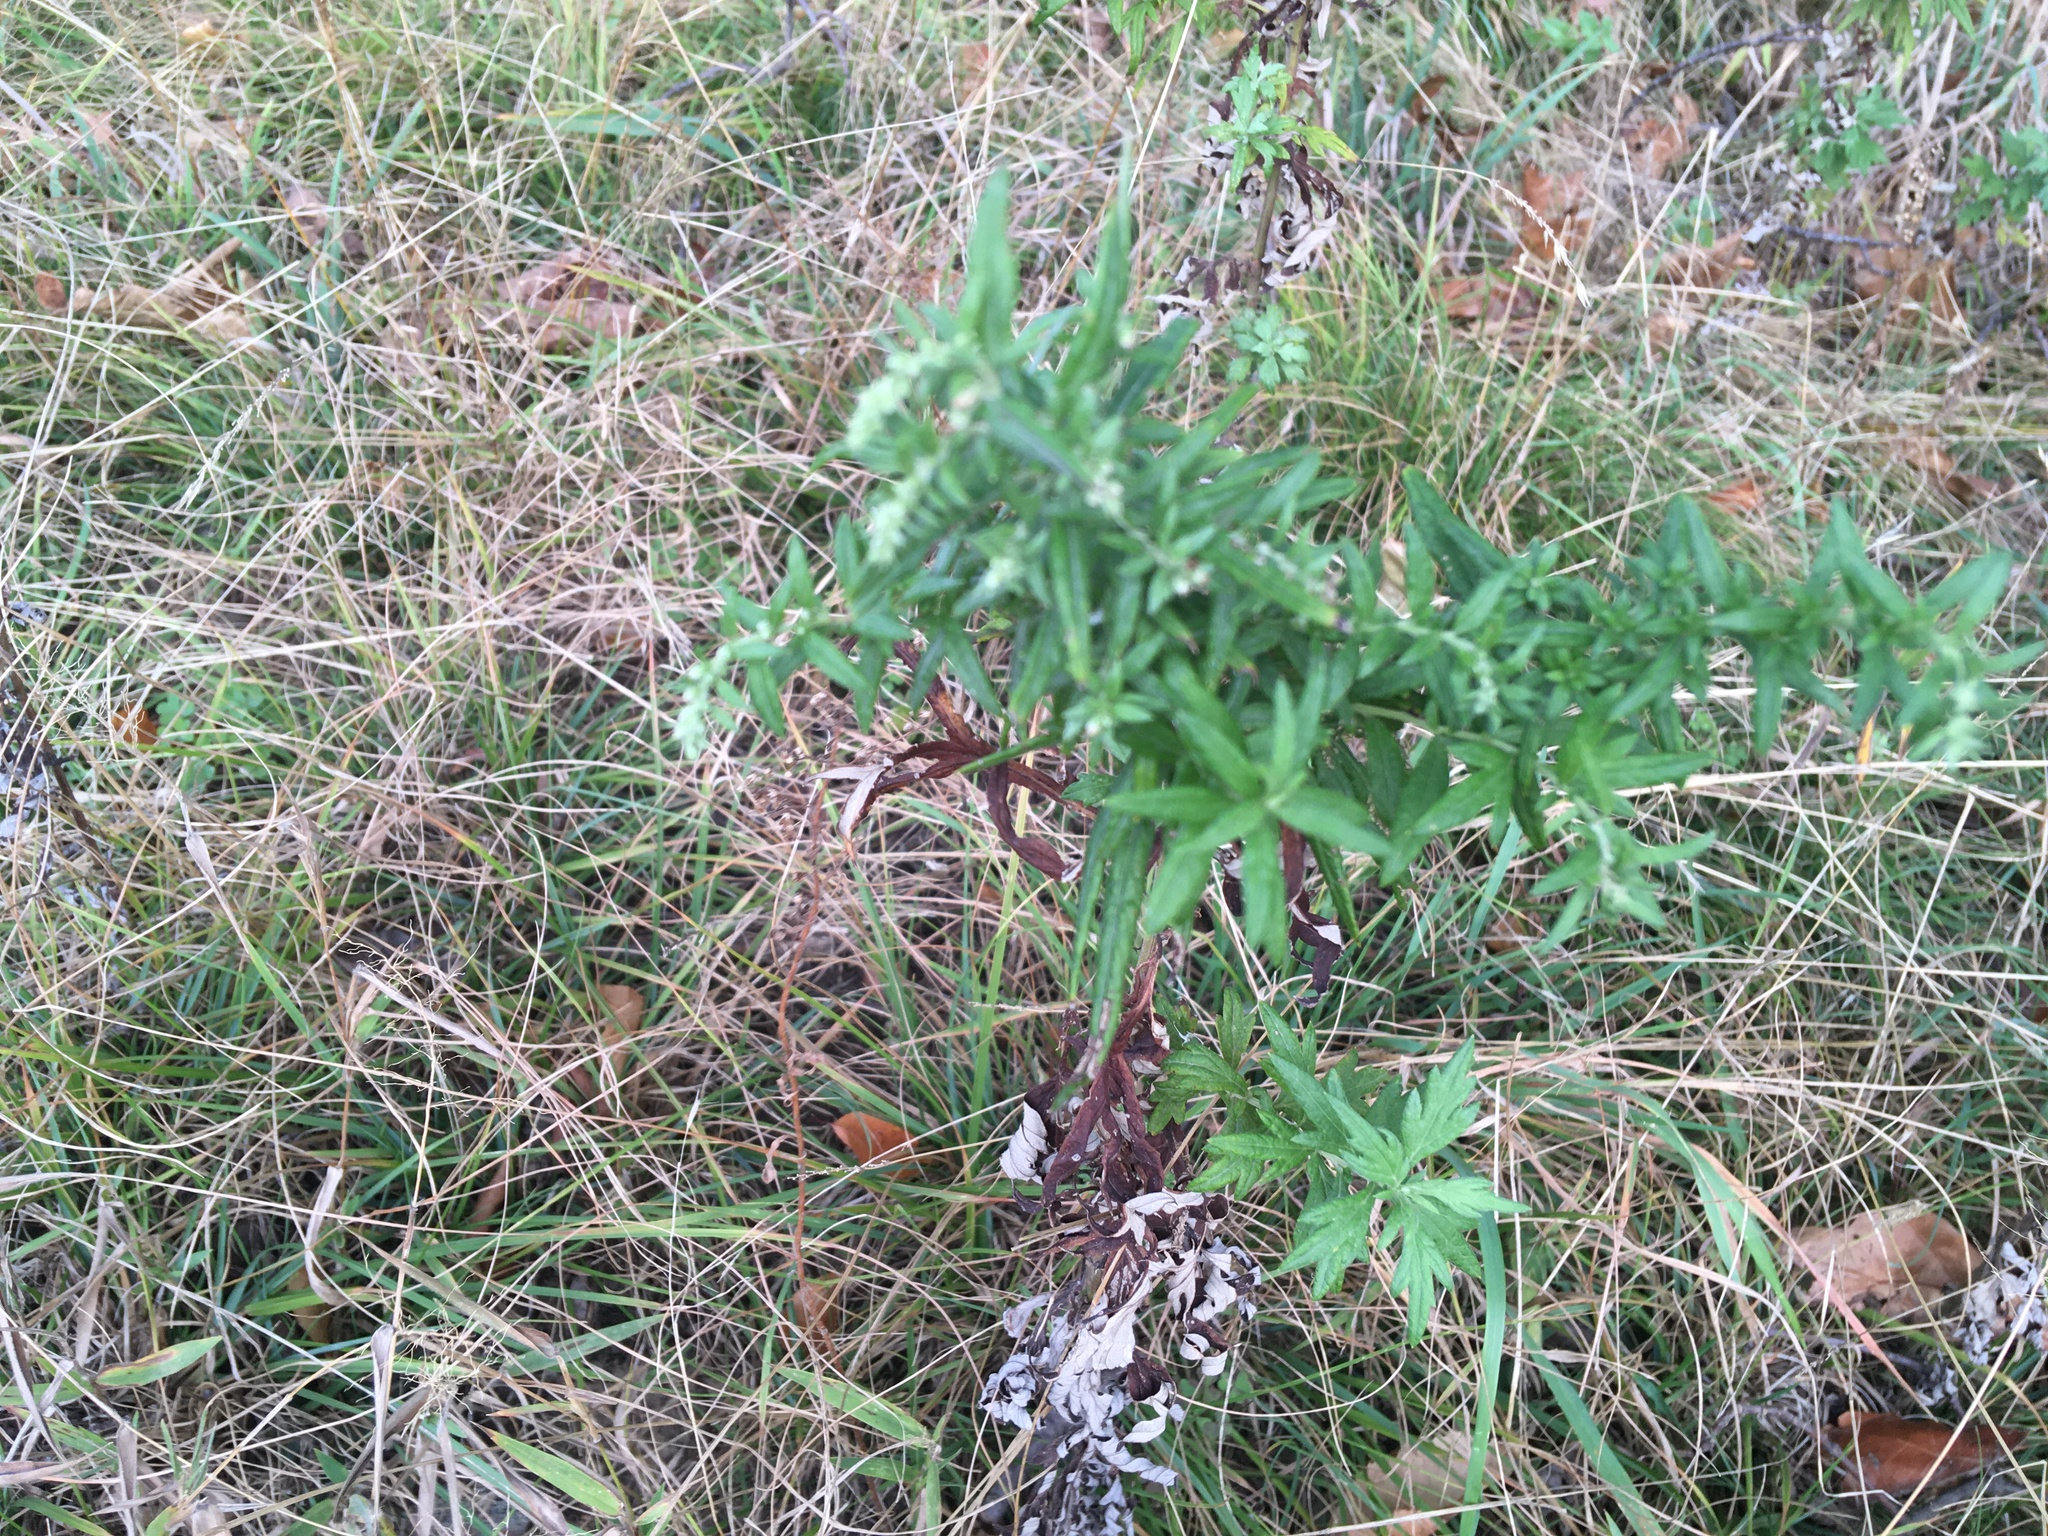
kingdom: Plantae
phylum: Tracheophyta
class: Magnoliopsida
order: Asterales
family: Asteraceae
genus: Artemisia
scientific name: Artemisia vulgaris
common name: Mugwort
